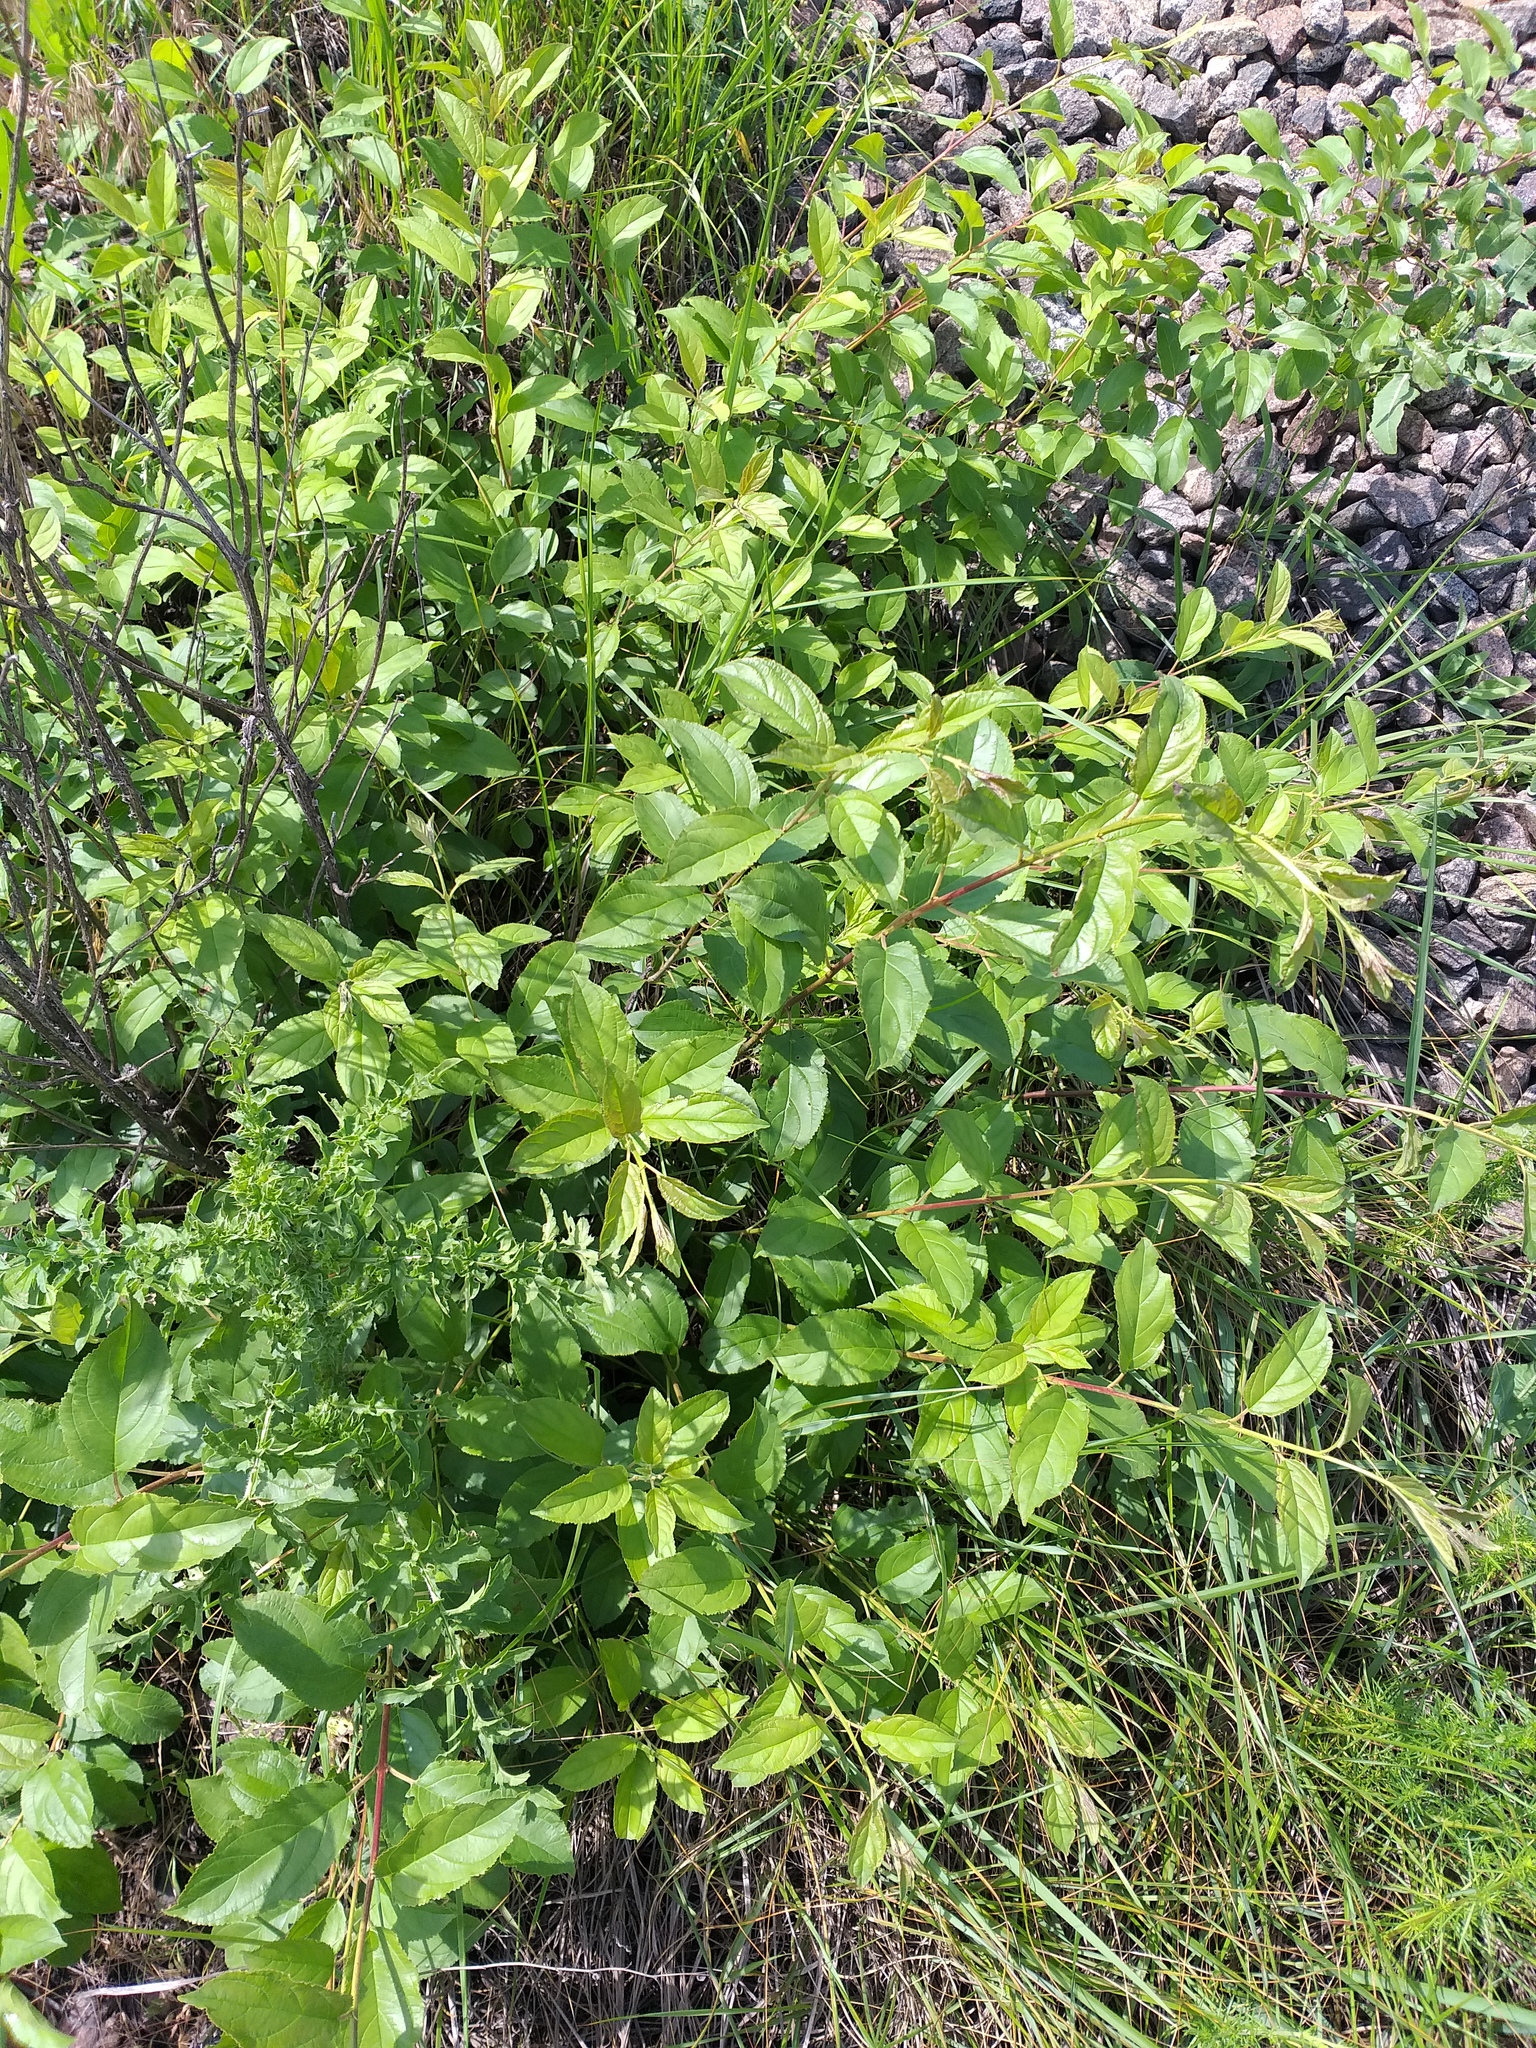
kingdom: Plantae
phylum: Tracheophyta
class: Magnoliopsida
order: Rosales
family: Rhamnaceae
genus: Rhamnus
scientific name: Rhamnus cathartica
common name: Common buckthorn
